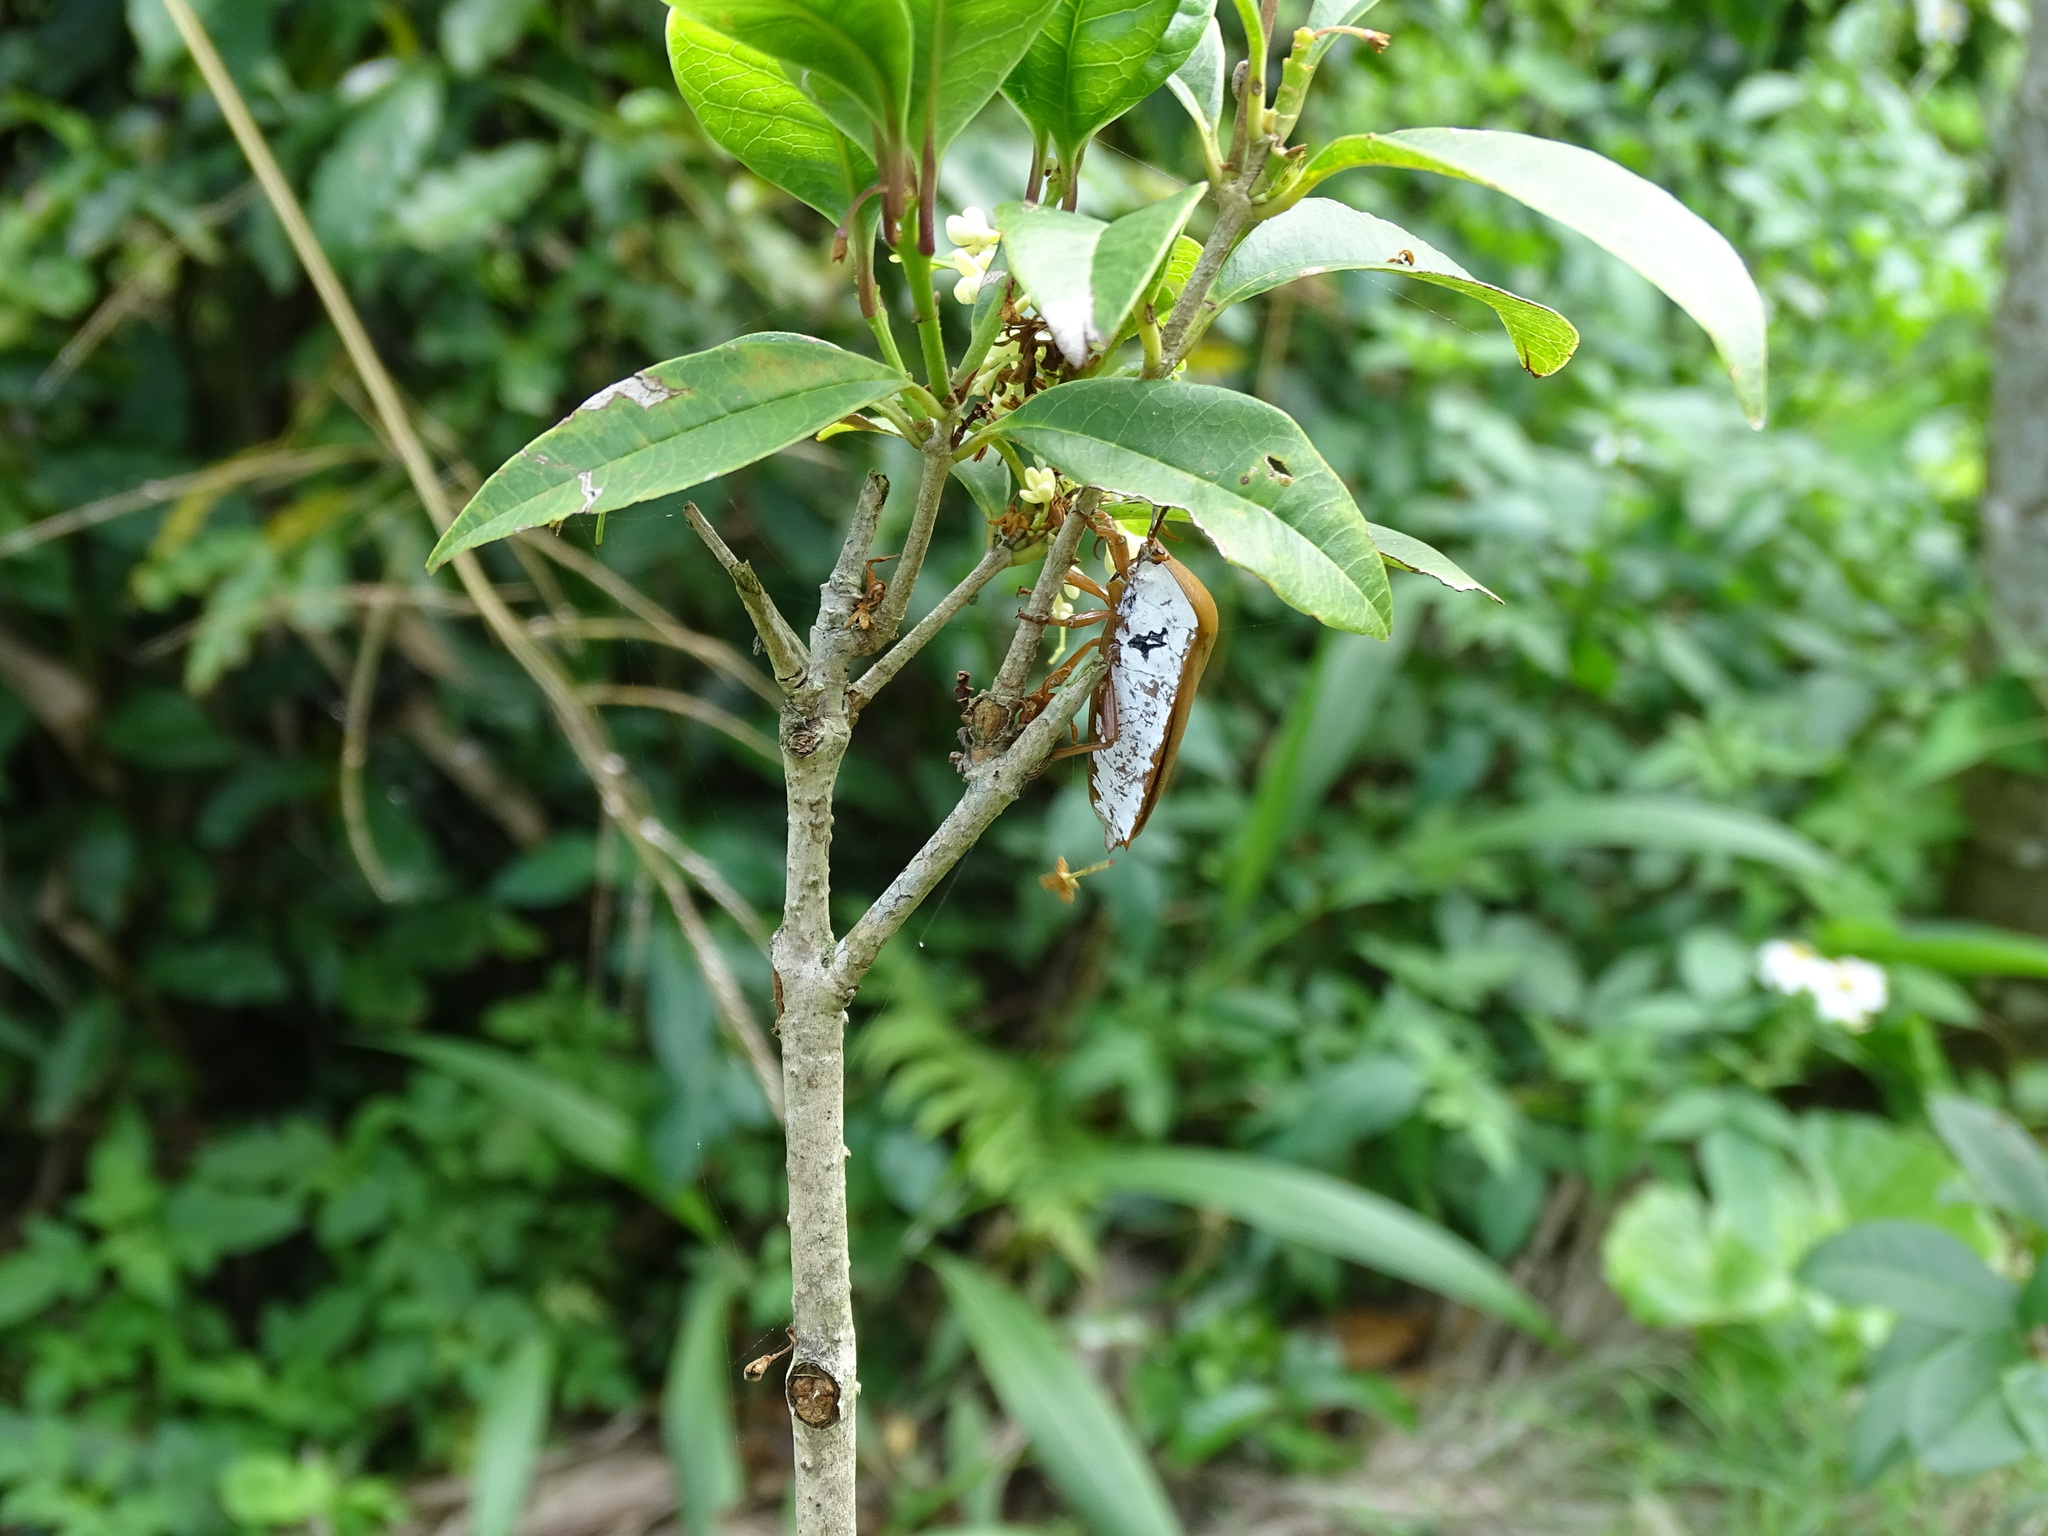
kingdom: Animalia
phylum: Arthropoda
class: Insecta
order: Hemiptera
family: Tessaratomidae
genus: Tessaratoma
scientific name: Tessaratoma papillosa
